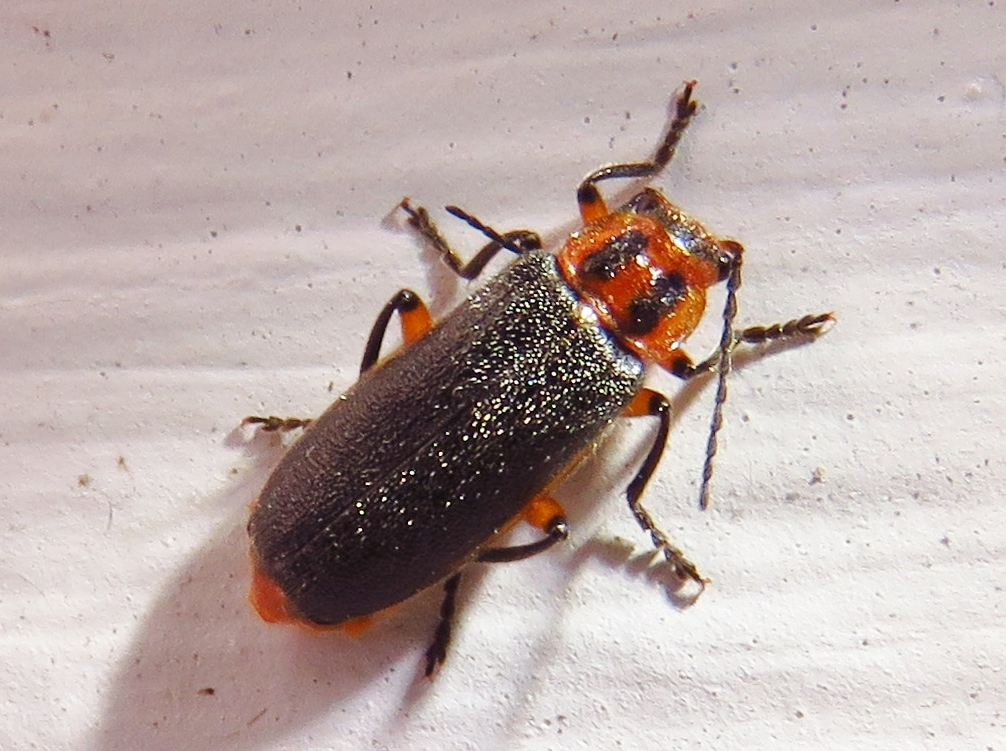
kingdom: Animalia
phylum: Arthropoda
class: Insecta
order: Coleoptera
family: Cantharidae
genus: Atalantycha
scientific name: Atalantycha bilineata
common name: Two-lined leatherwing
